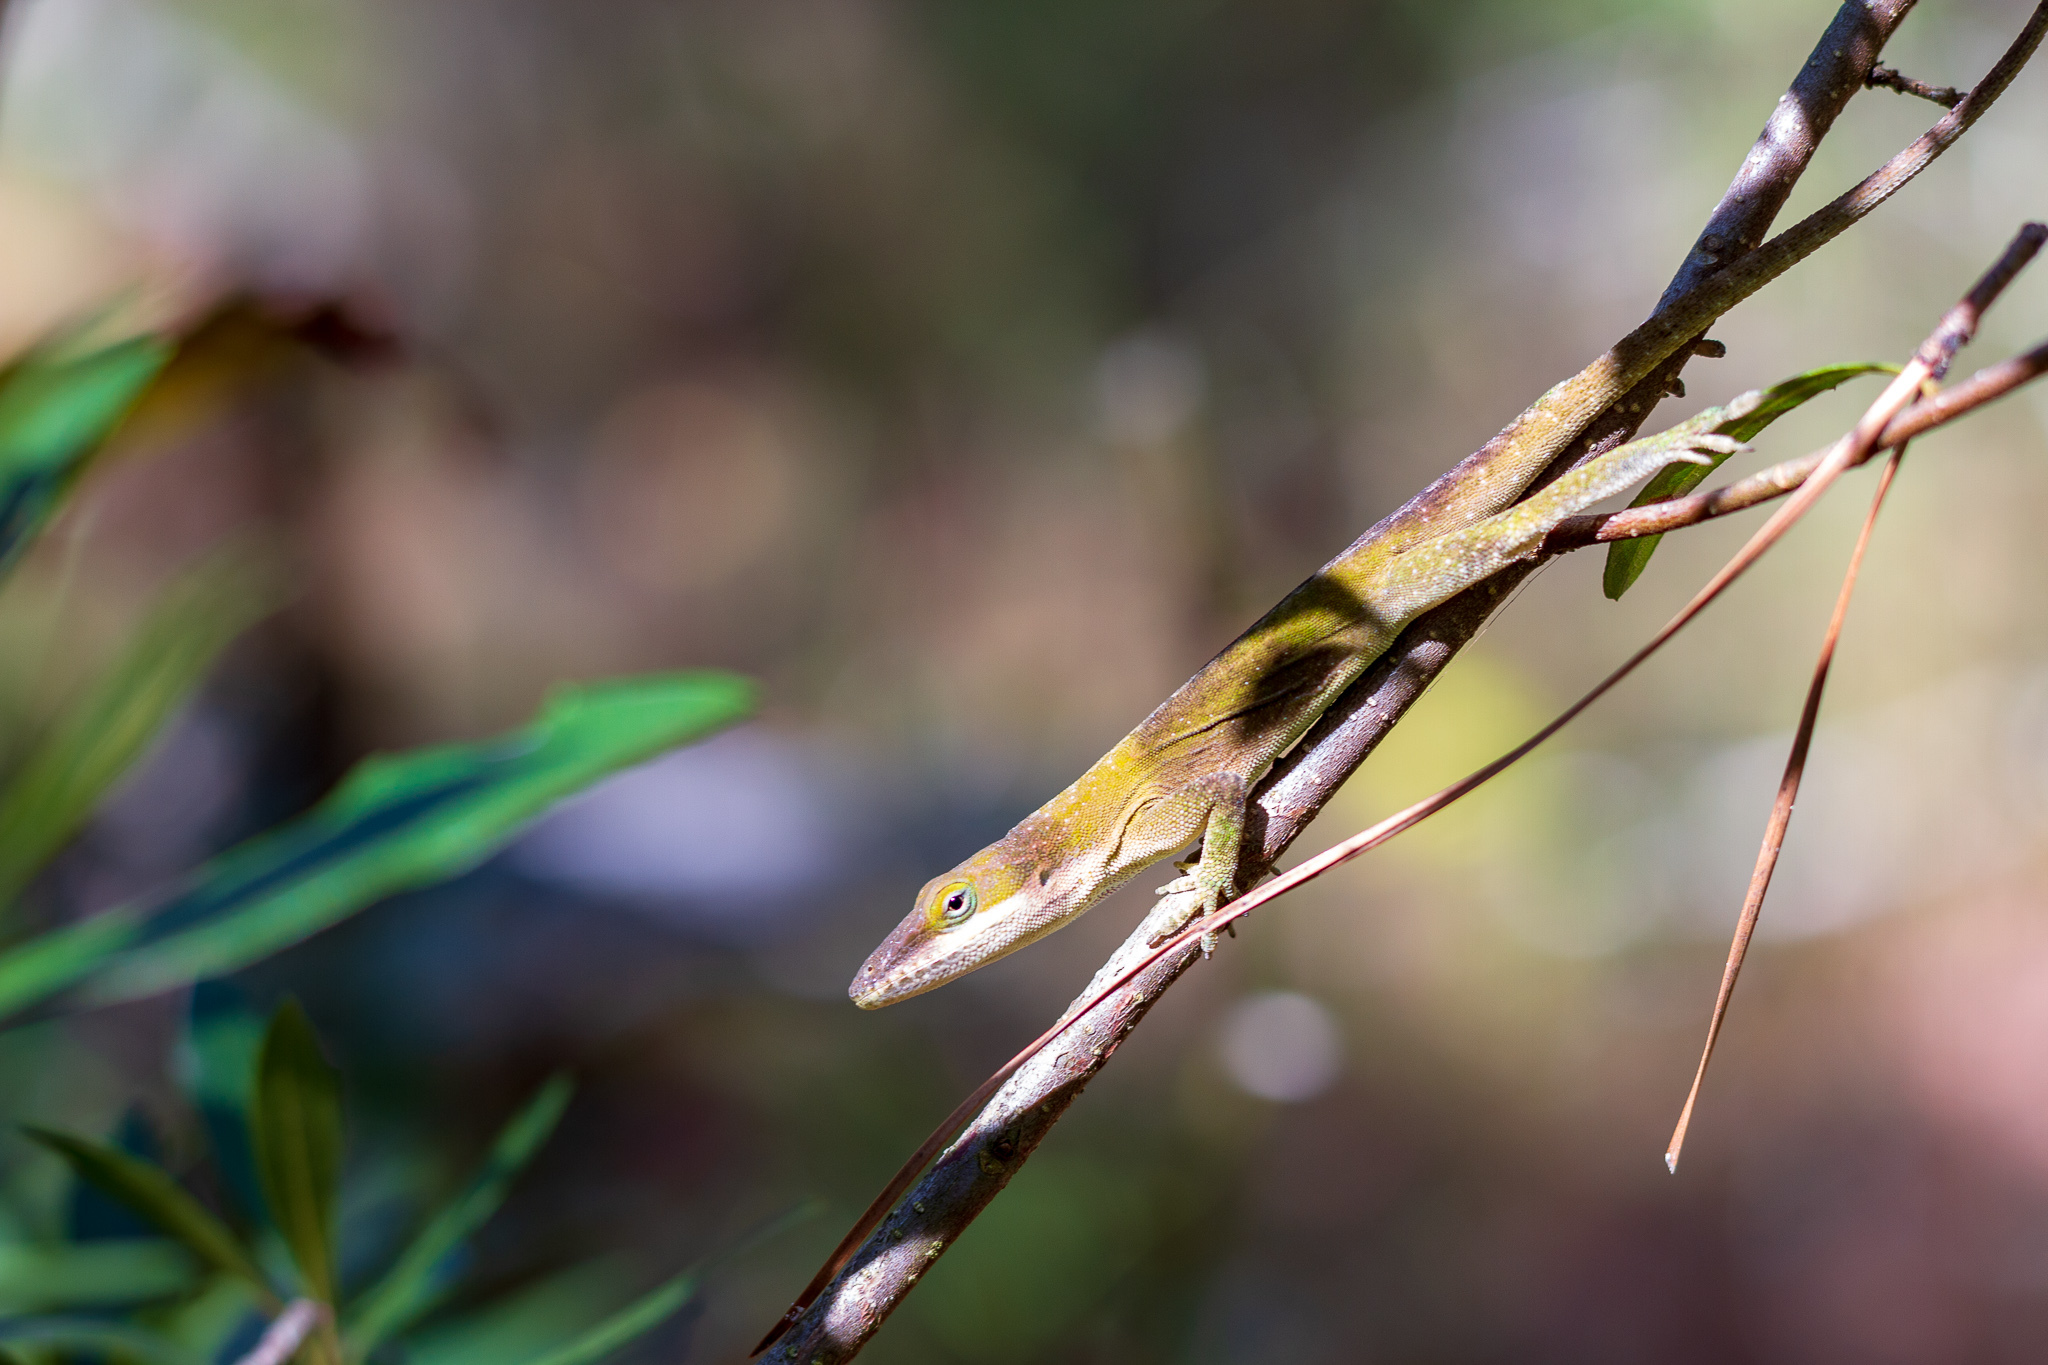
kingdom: Animalia
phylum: Chordata
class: Squamata
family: Dactyloidae
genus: Anolis
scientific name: Anolis carolinensis
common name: Green anole
